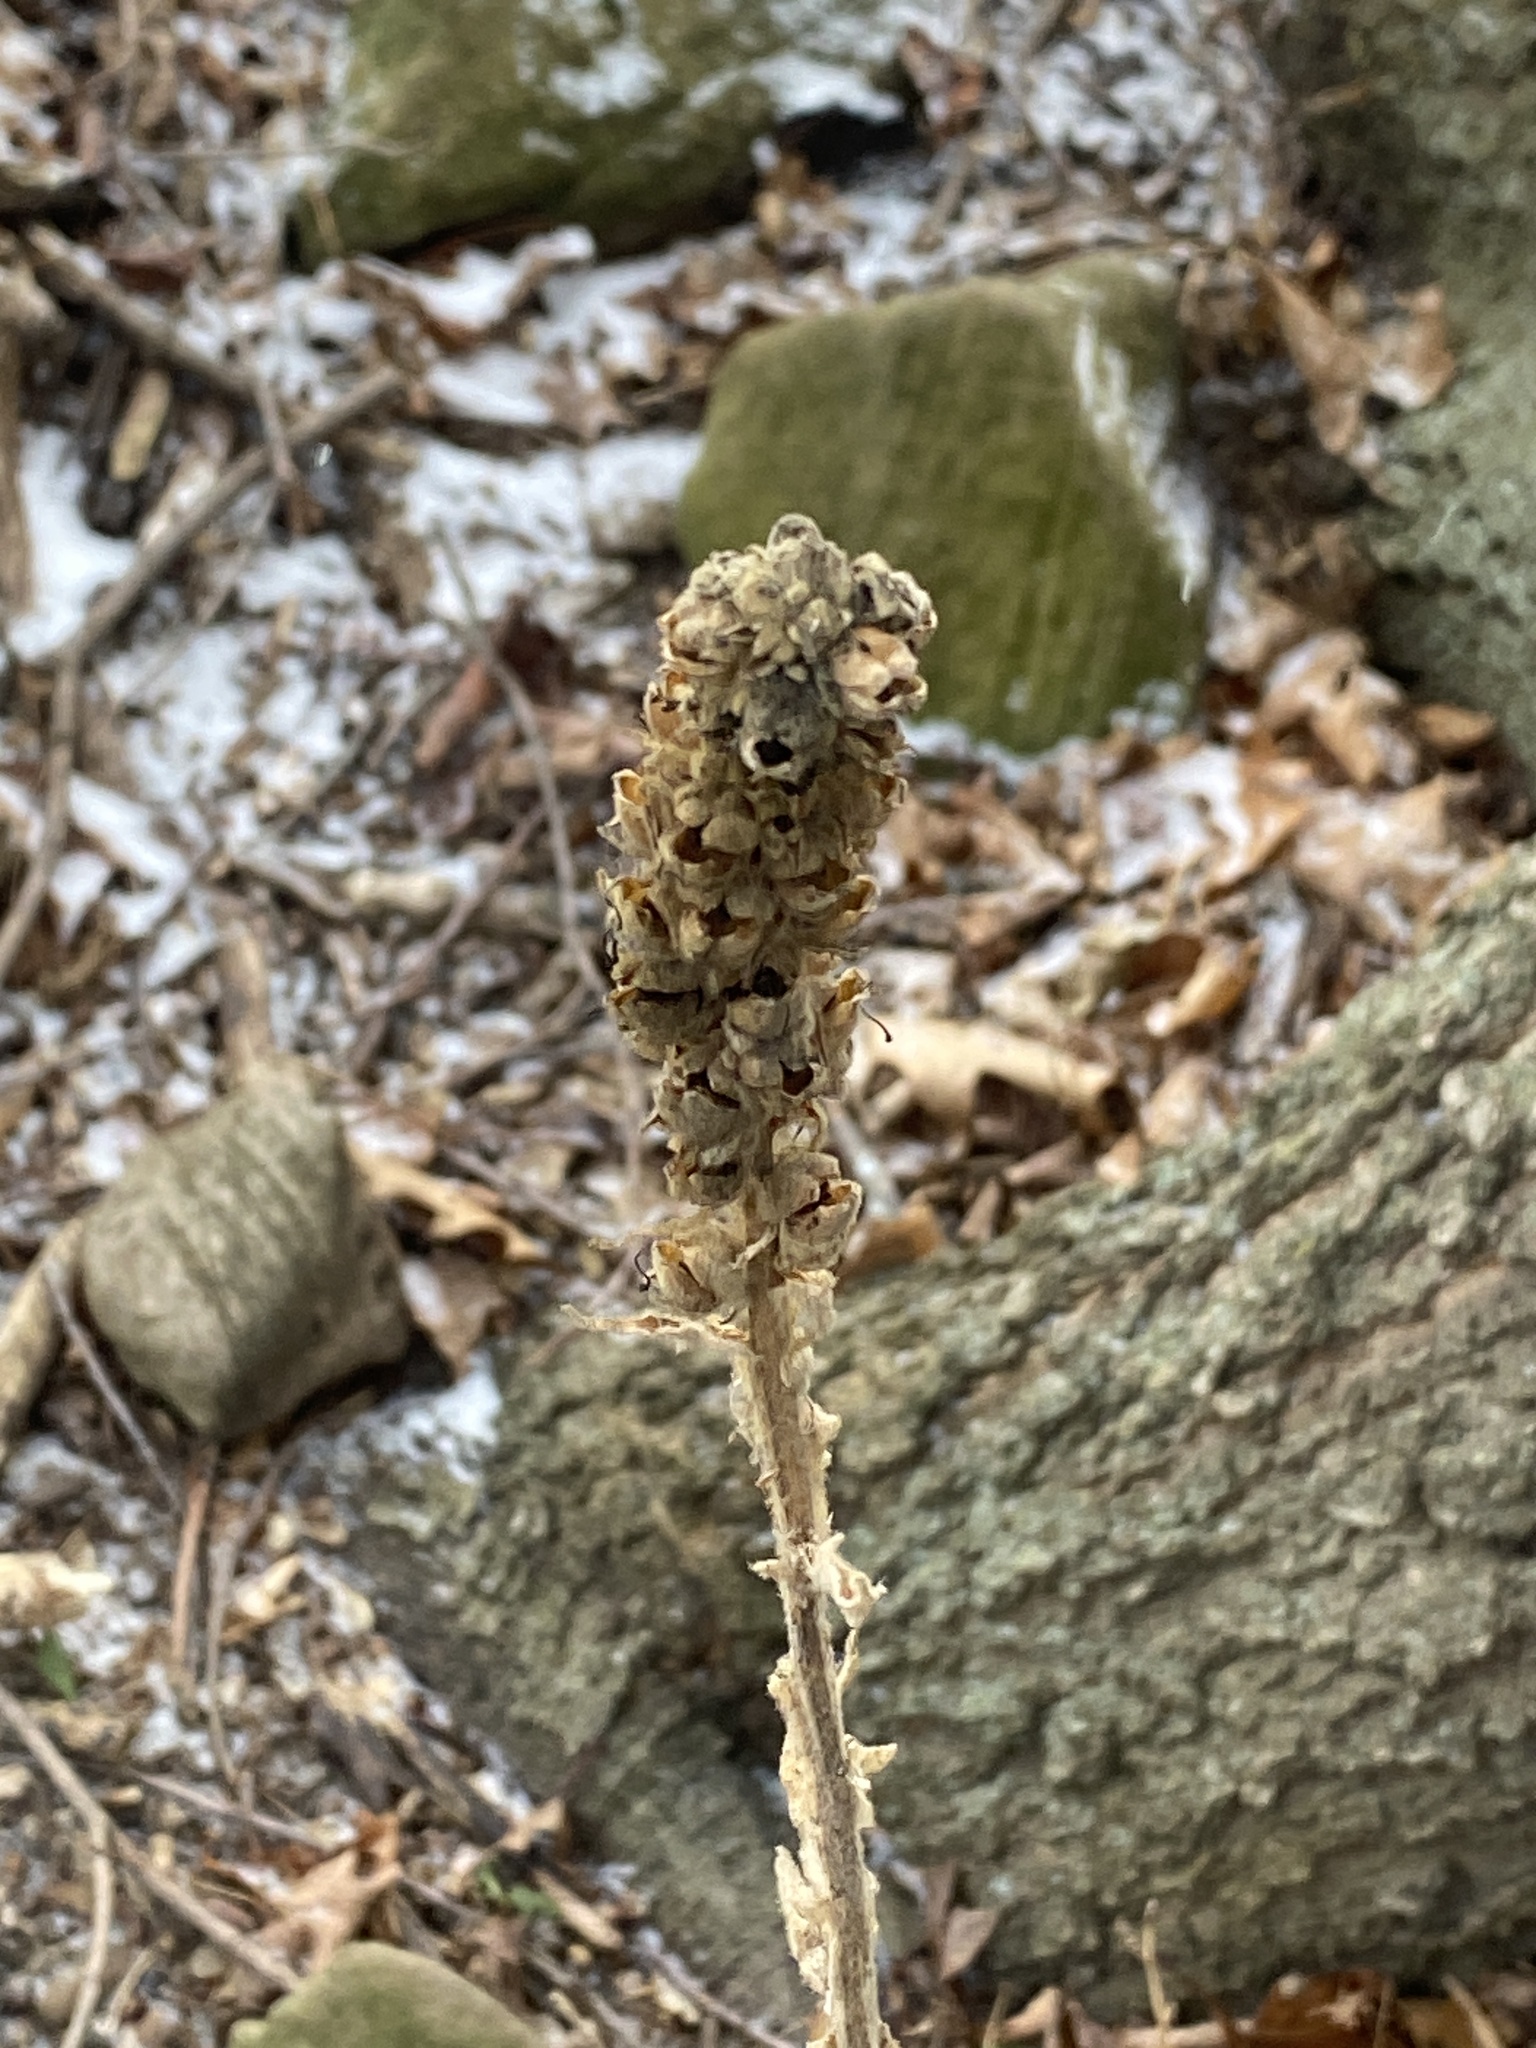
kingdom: Plantae
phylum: Tracheophyta
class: Magnoliopsida
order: Lamiales
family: Scrophulariaceae
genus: Verbascum
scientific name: Verbascum thapsus
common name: Common mullein
